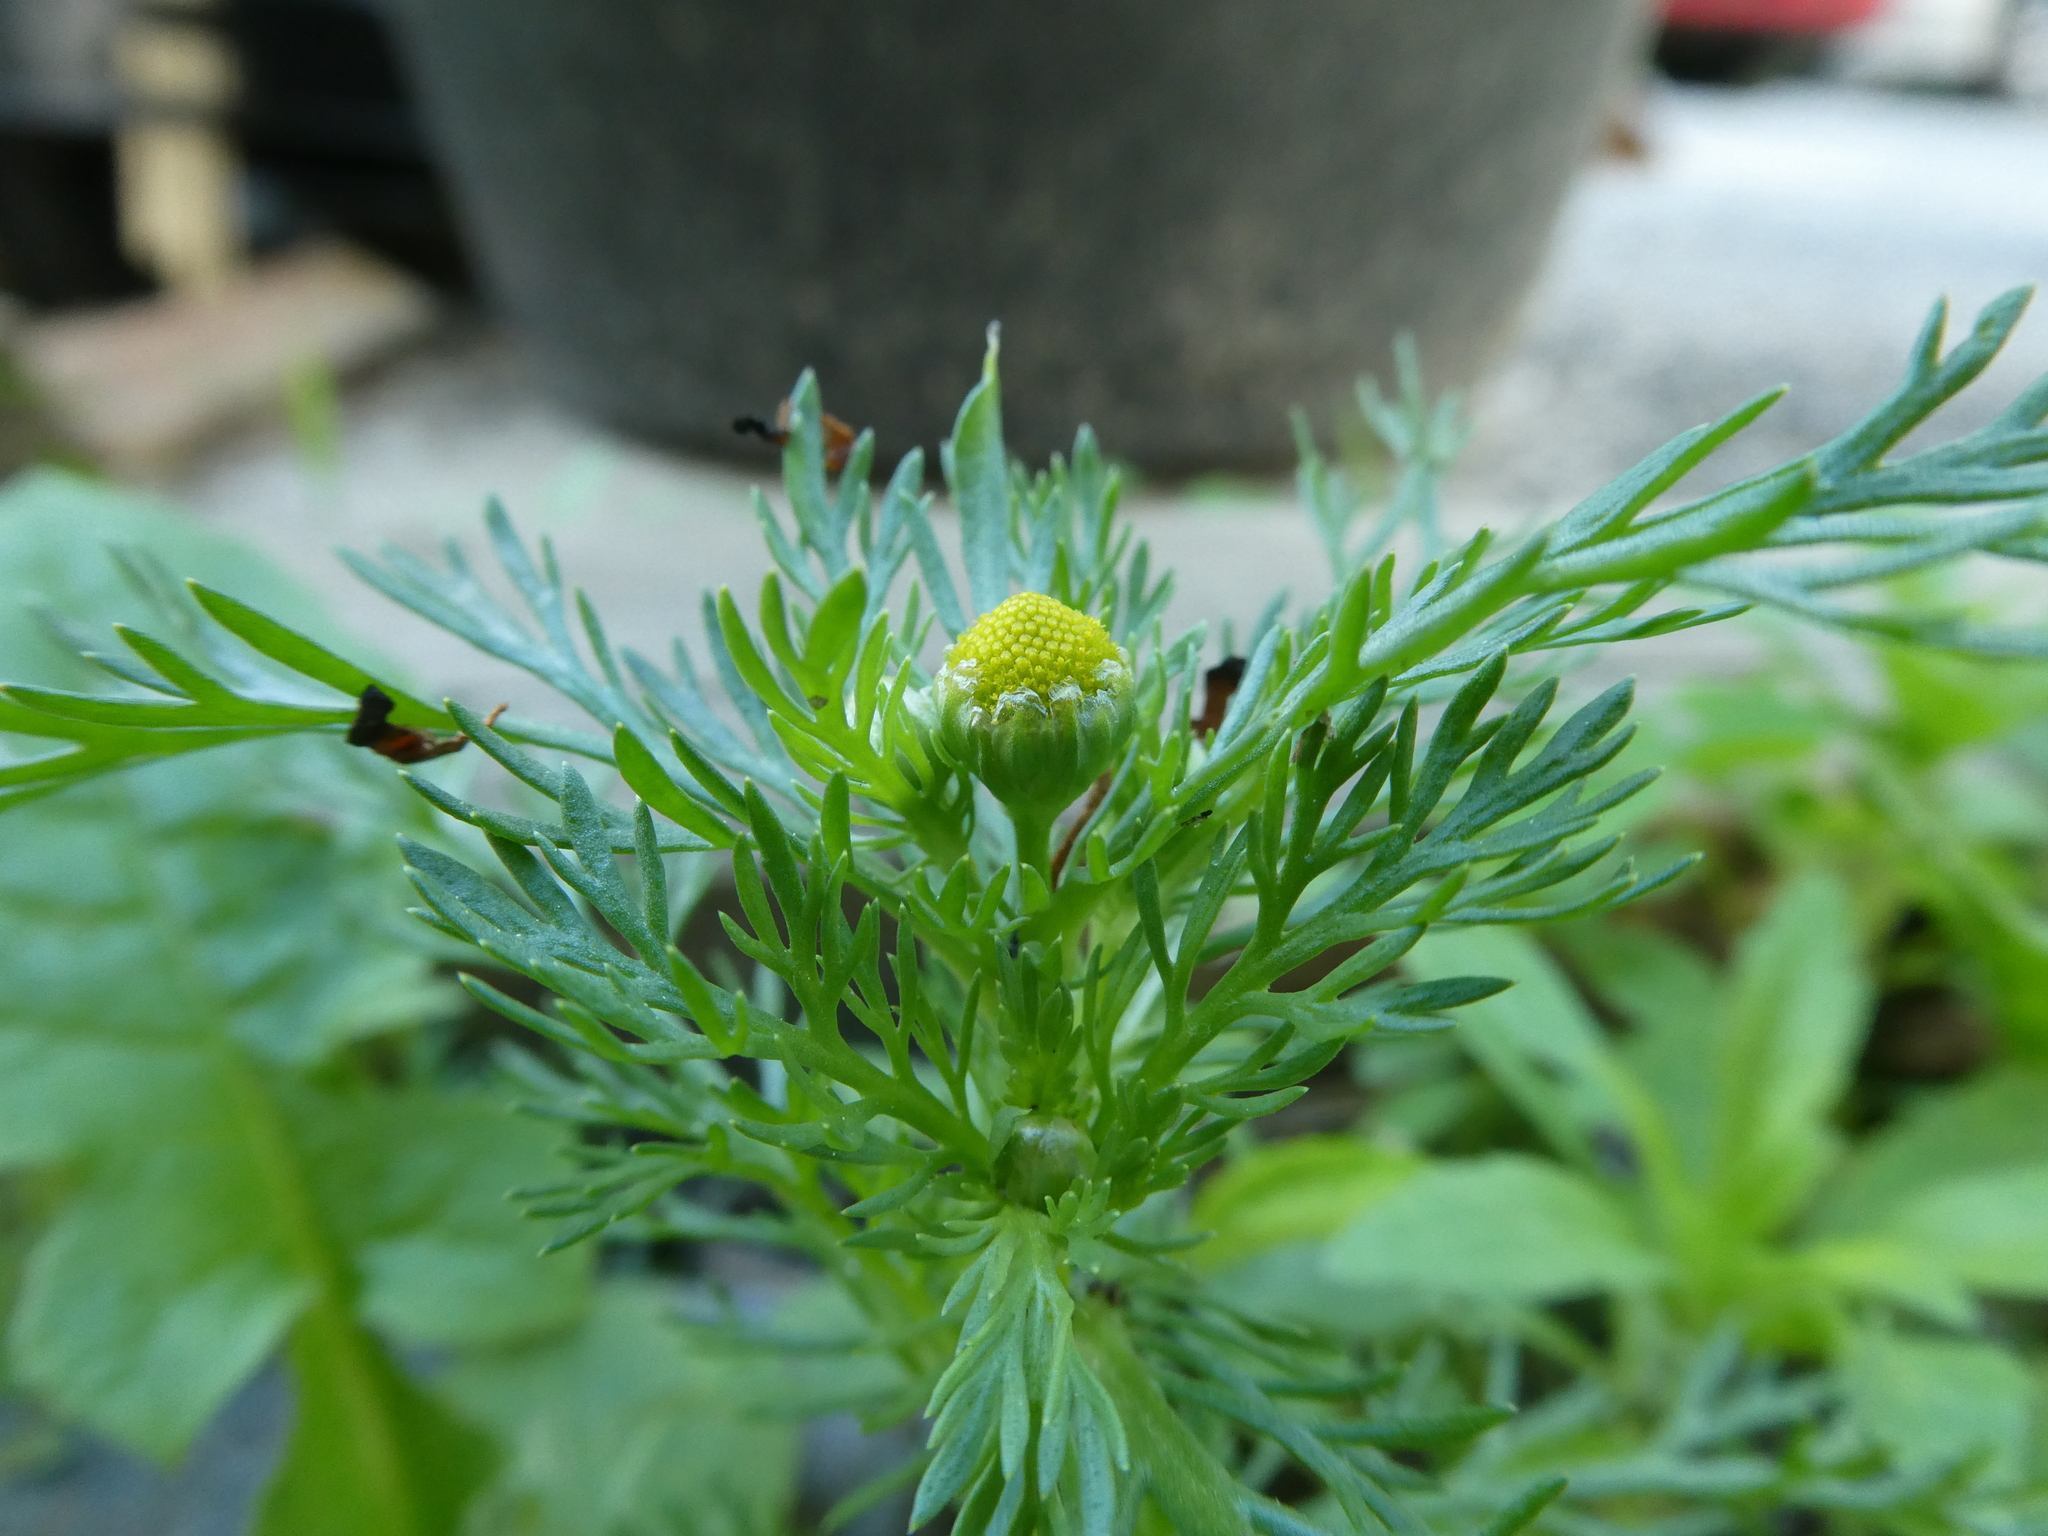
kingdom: Plantae
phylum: Tracheophyta
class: Magnoliopsida
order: Asterales
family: Asteraceae
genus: Matricaria
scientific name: Matricaria discoidea
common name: Disc mayweed
